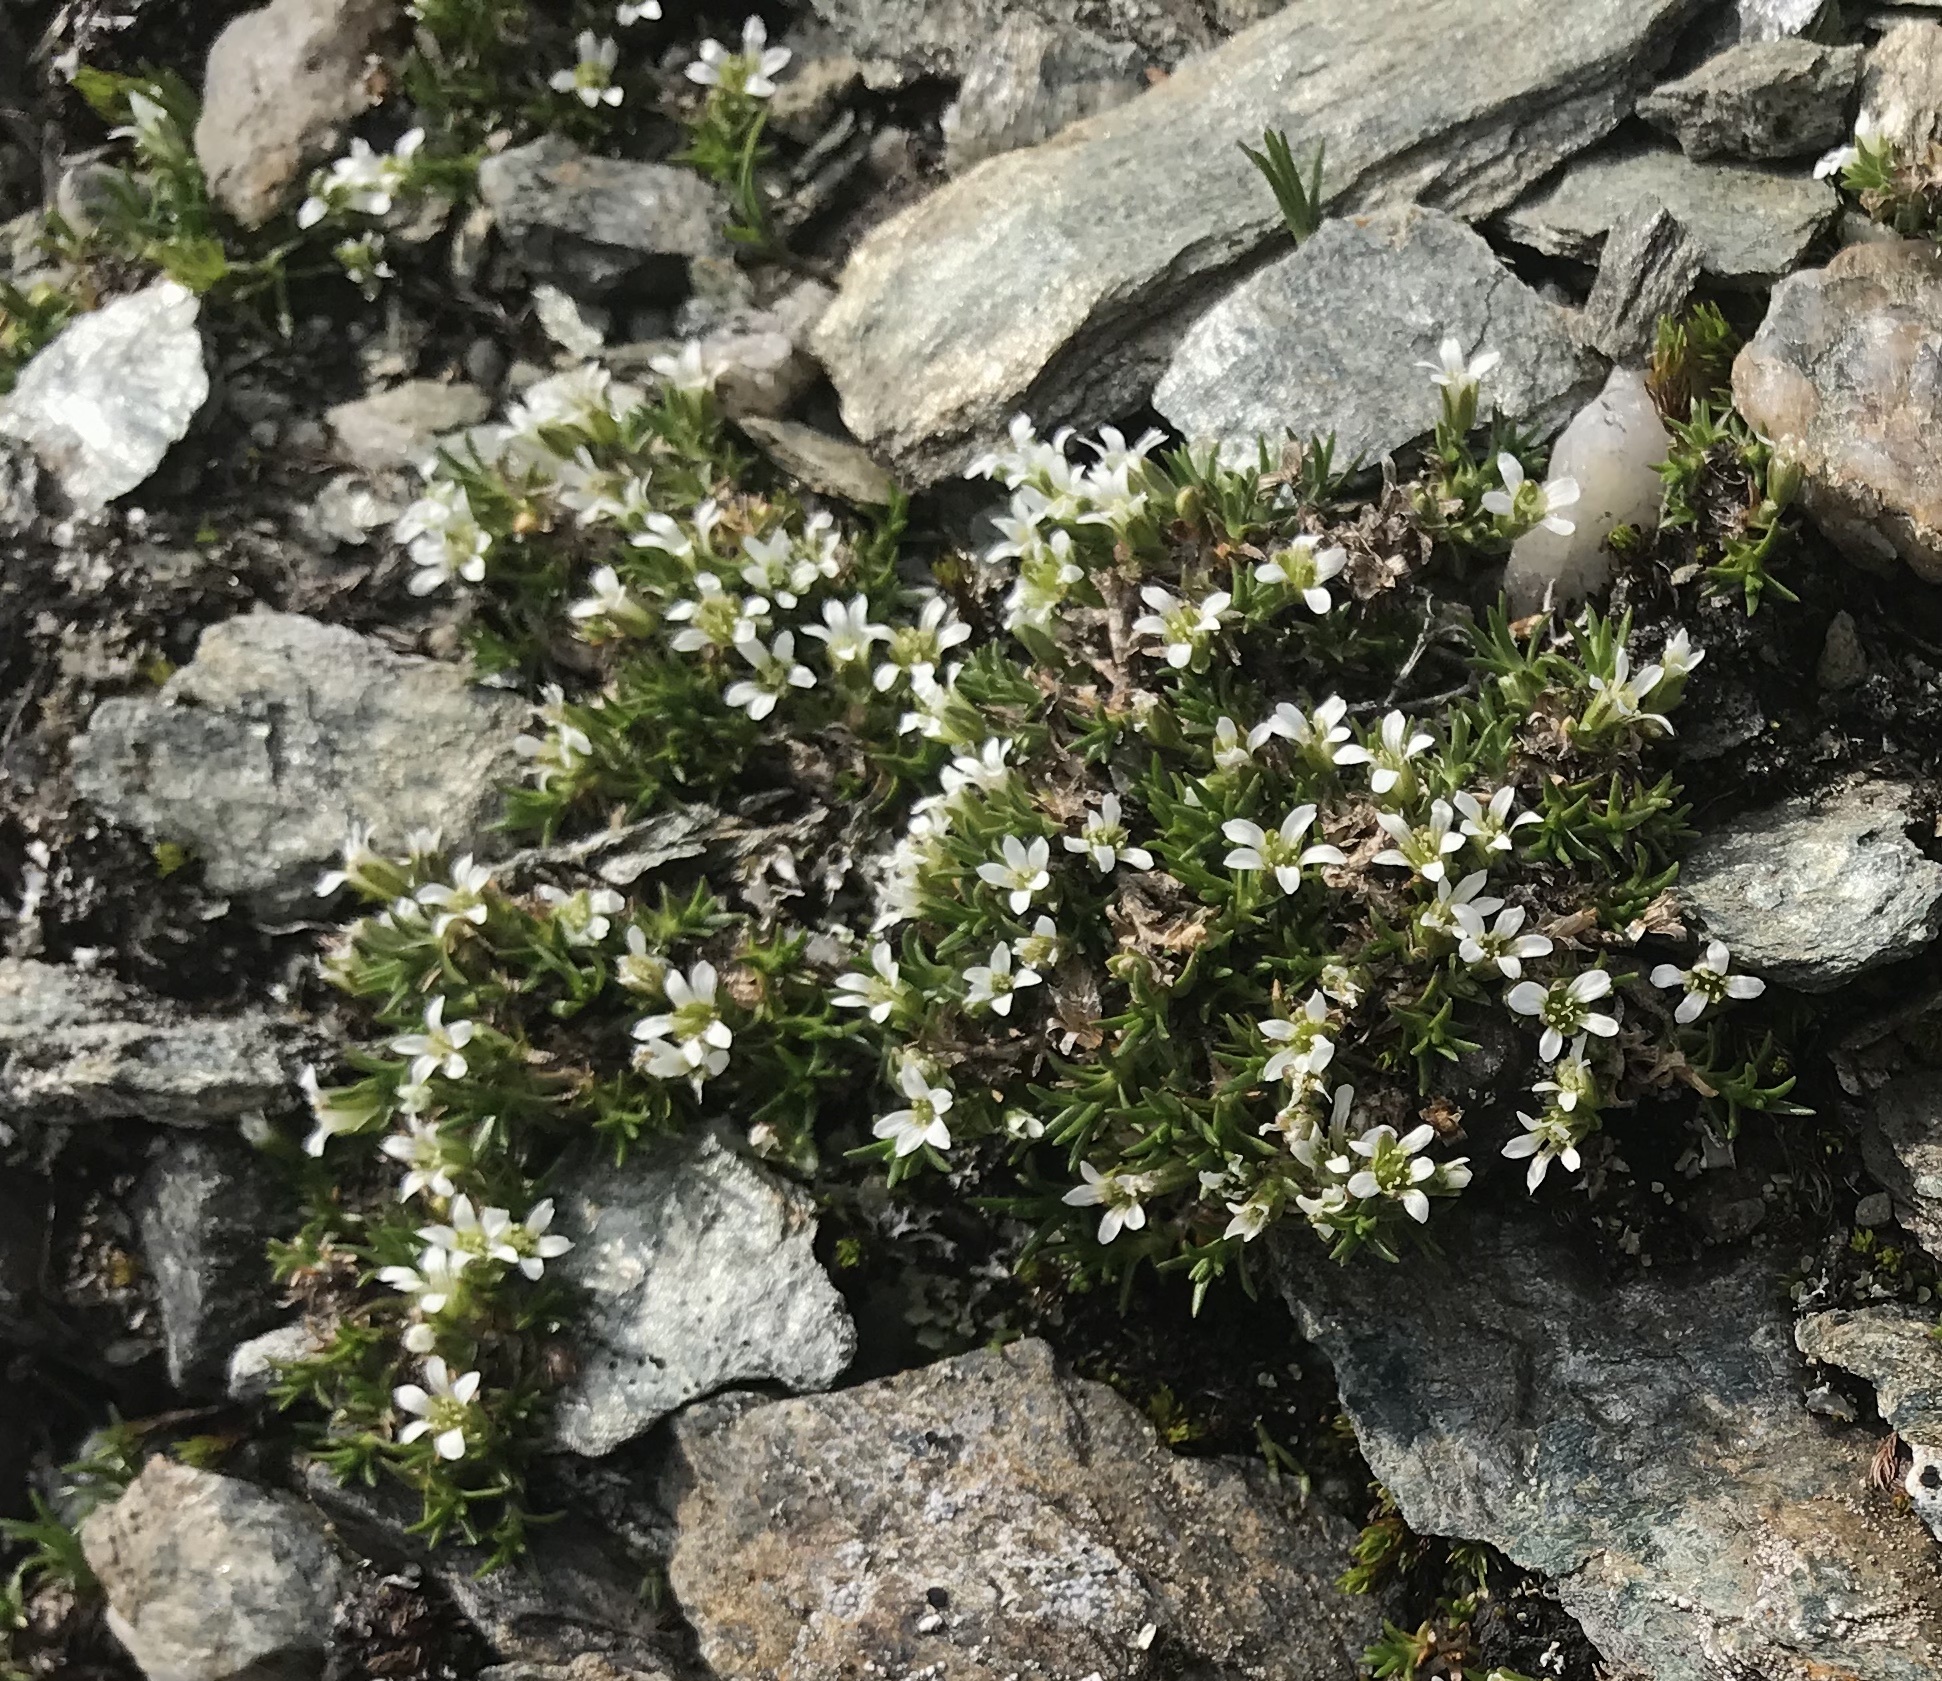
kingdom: Plantae
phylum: Tracheophyta
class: Magnoliopsida
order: Caryophyllales
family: Caryophyllaceae
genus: Arenaria
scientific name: Arenaria norvegica
